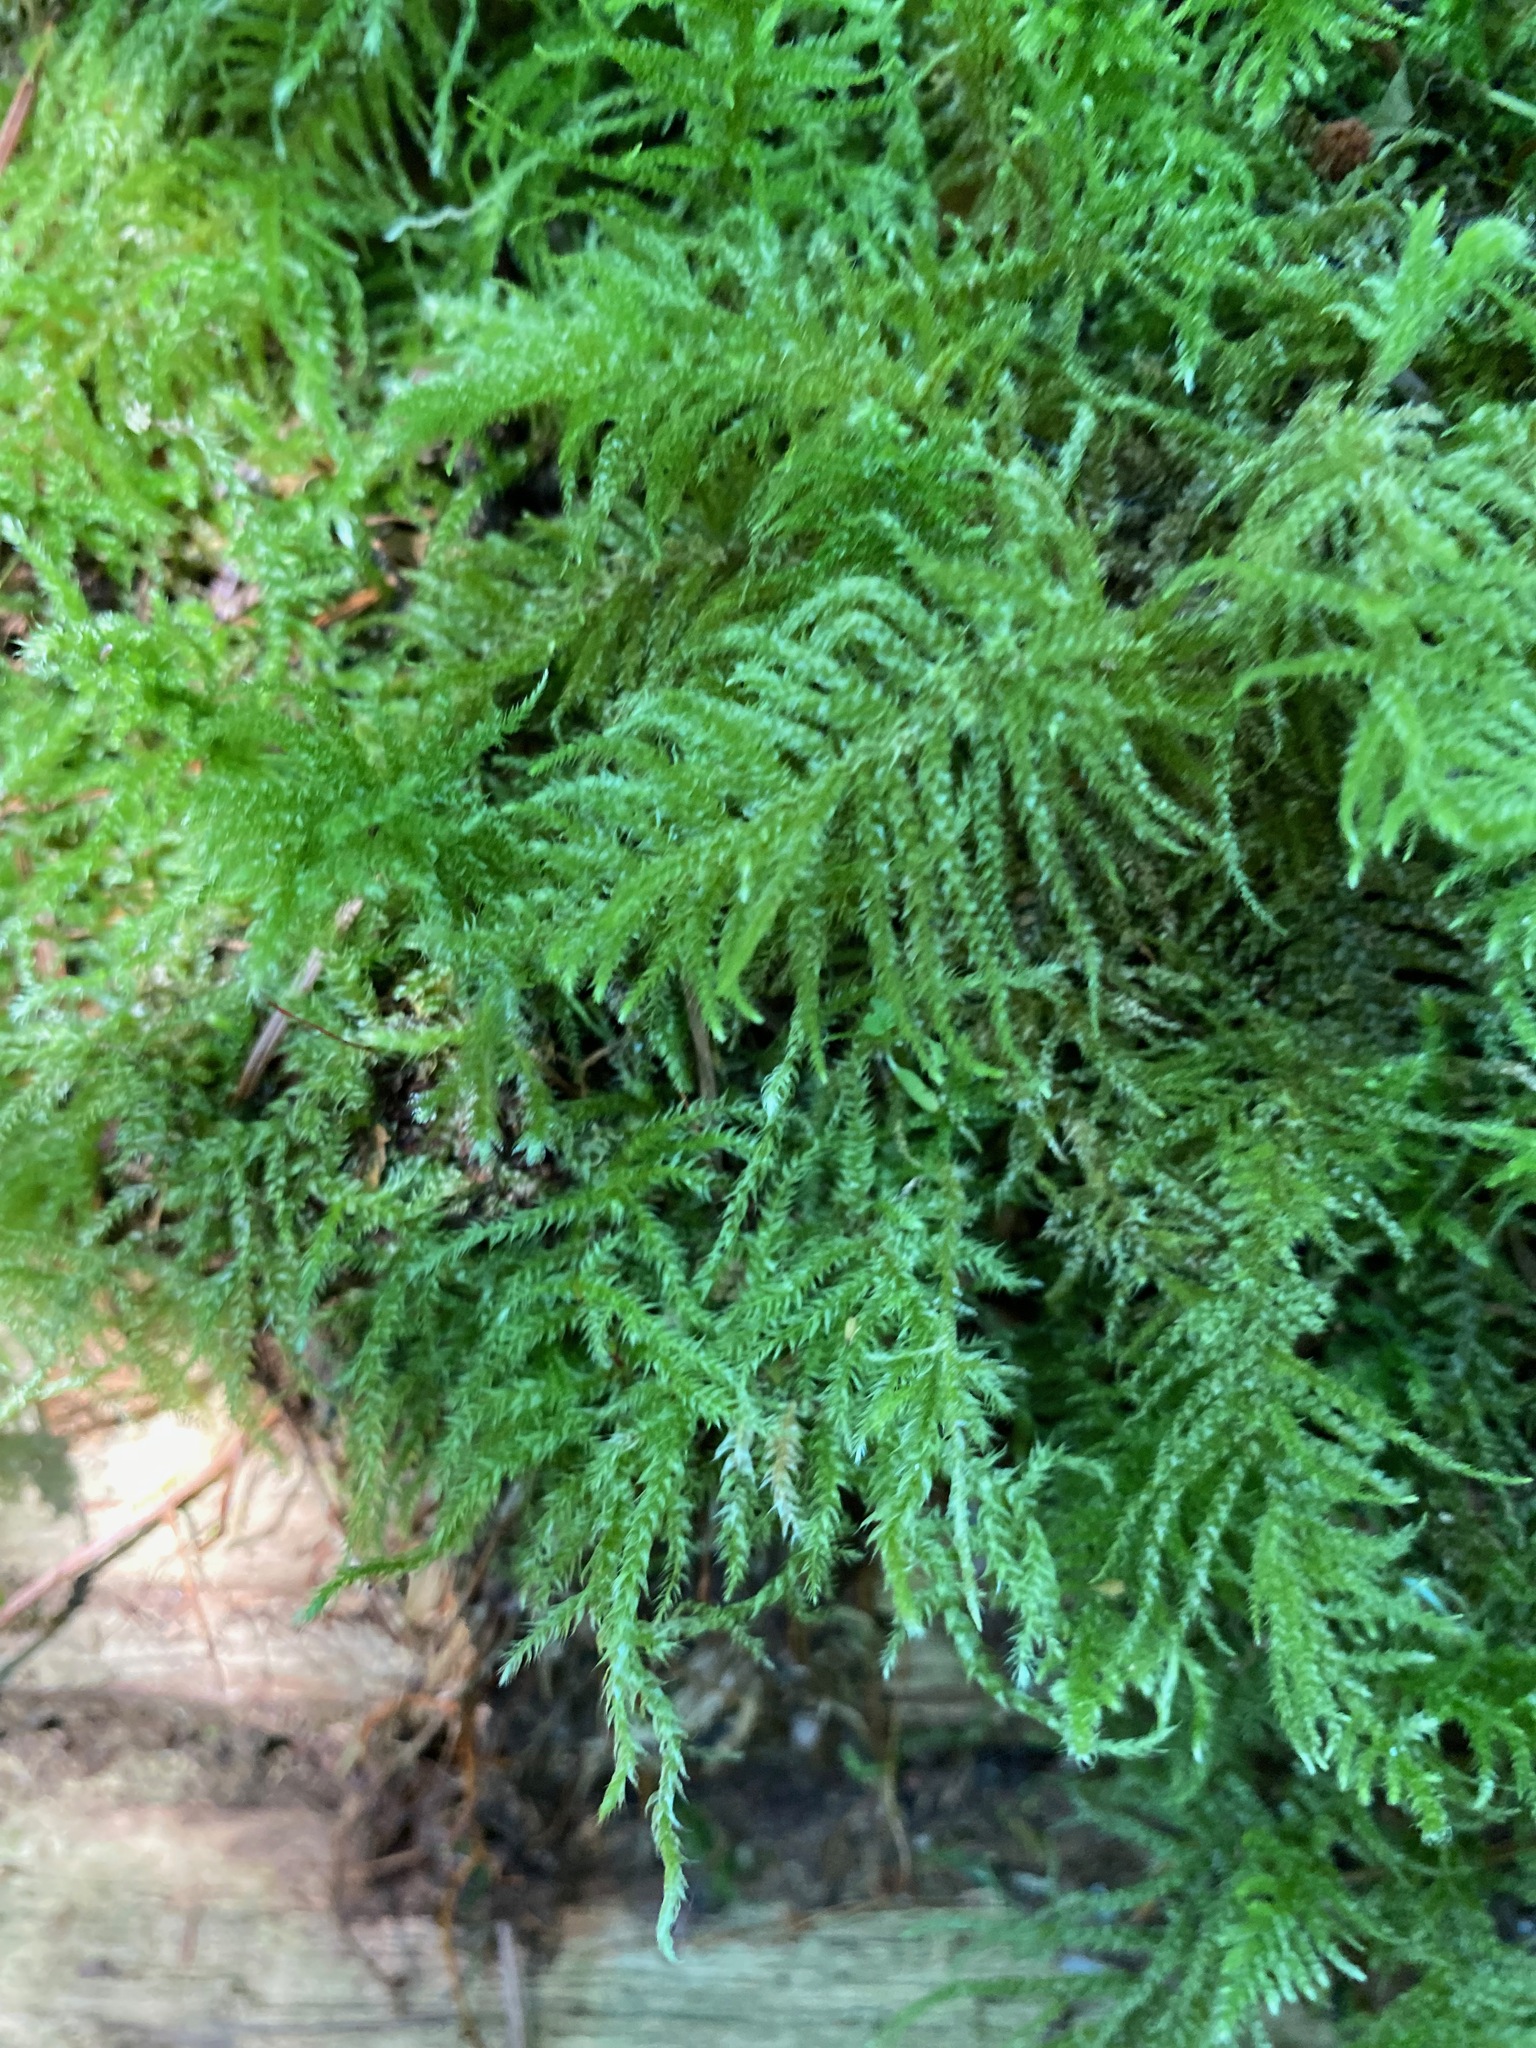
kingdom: Plantae
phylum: Bryophyta
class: Bryopsida
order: Hypnales
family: Brachytheciaceae
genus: Kindbergia
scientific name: Kindbergia oregana
